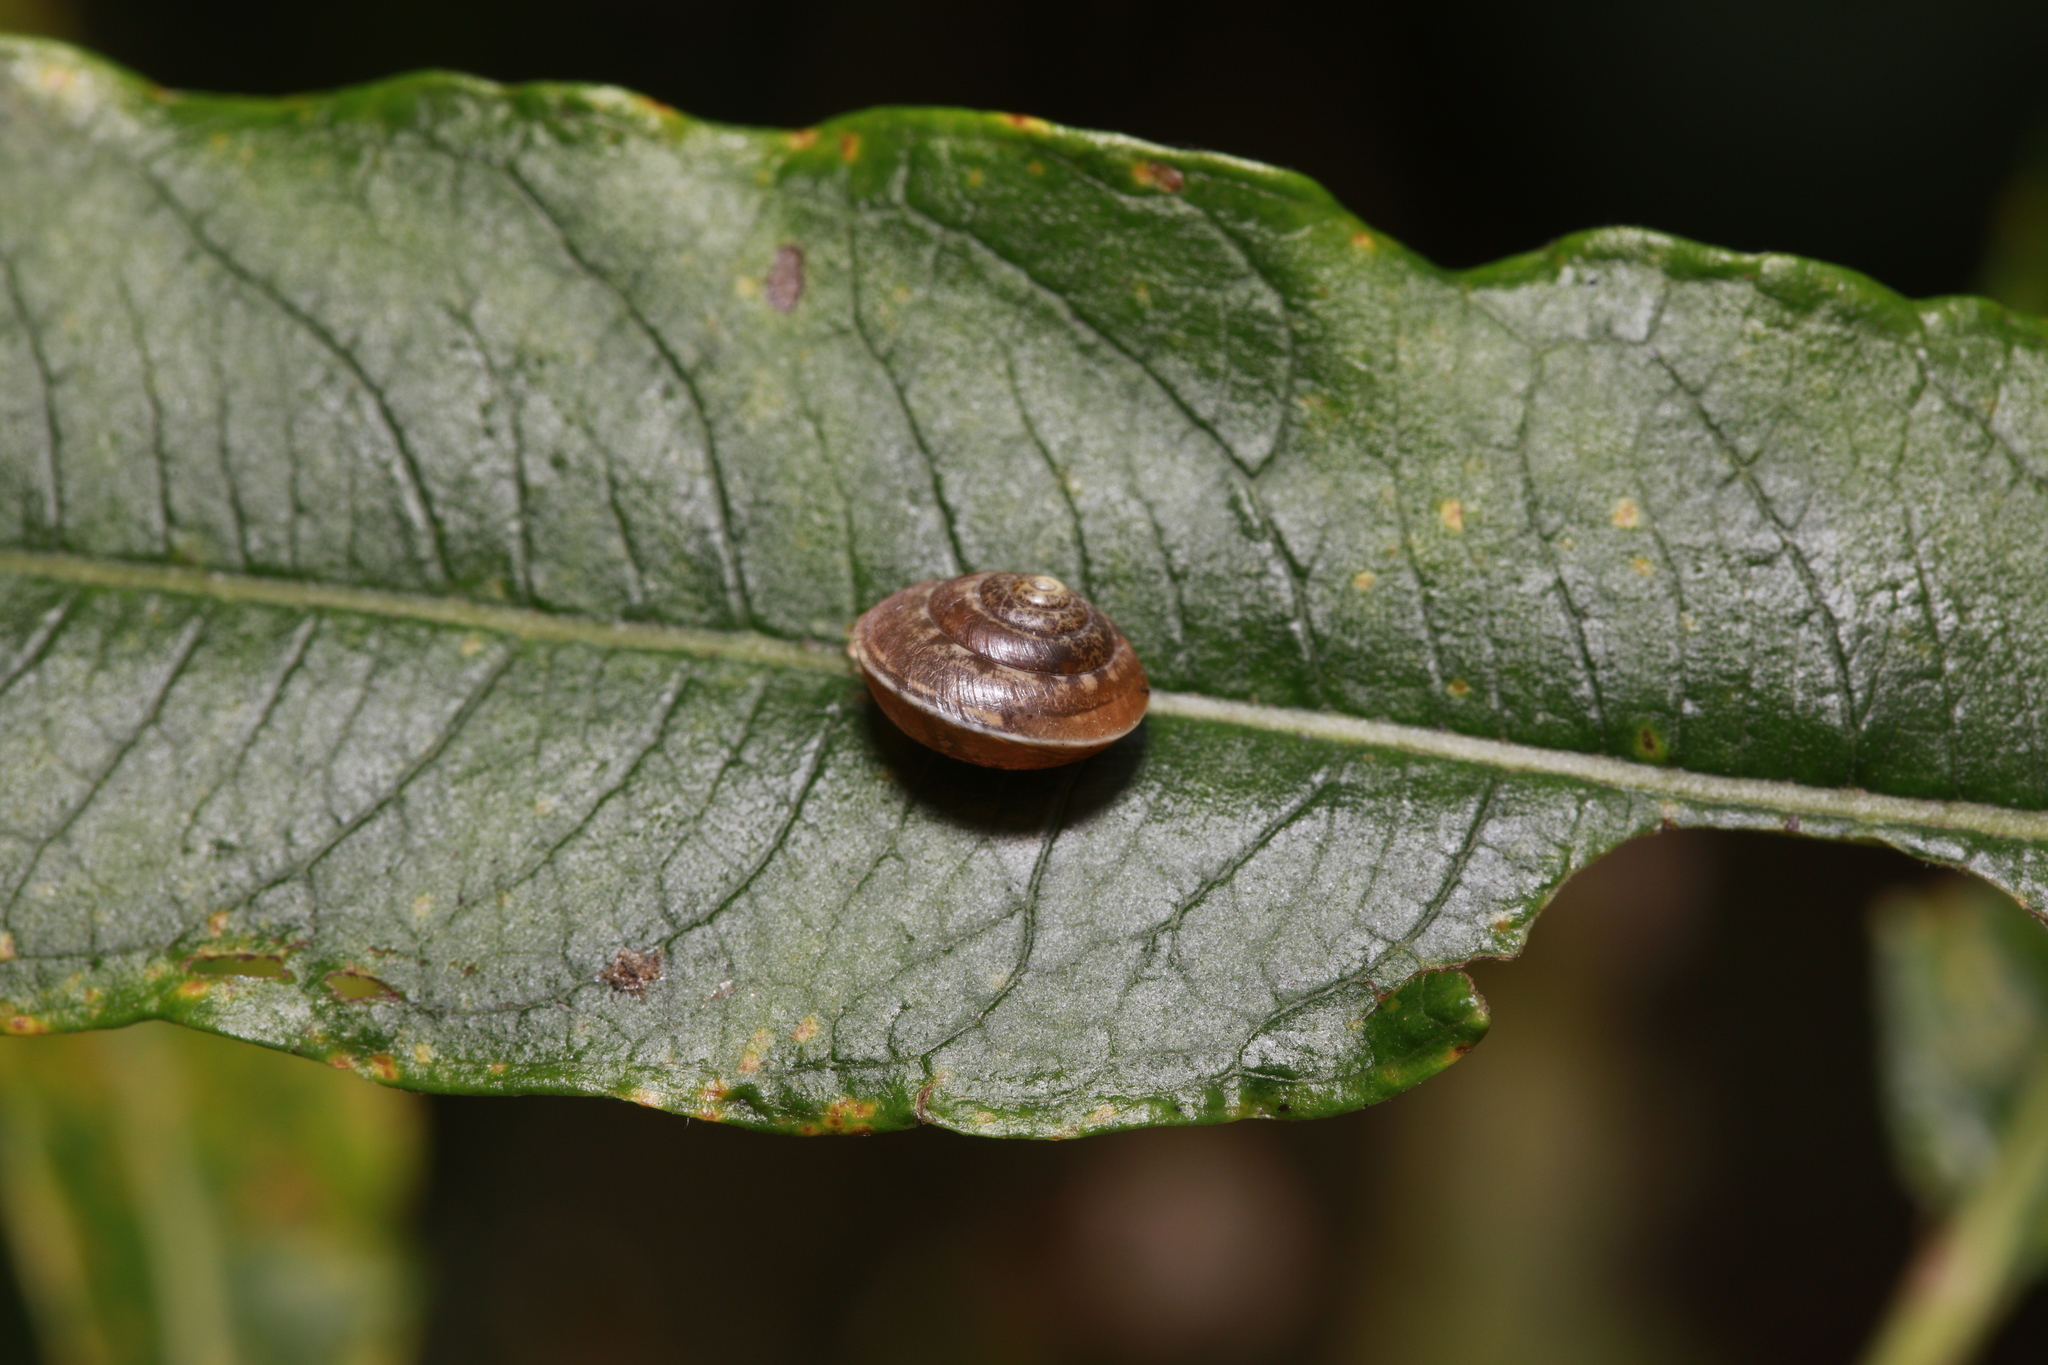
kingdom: Animalia
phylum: Mollusca
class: Gastropoda
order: Stylommatophora
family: Hygromiidae
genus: Hygromia
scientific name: Hygromia cinctella
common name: Girdled snail
